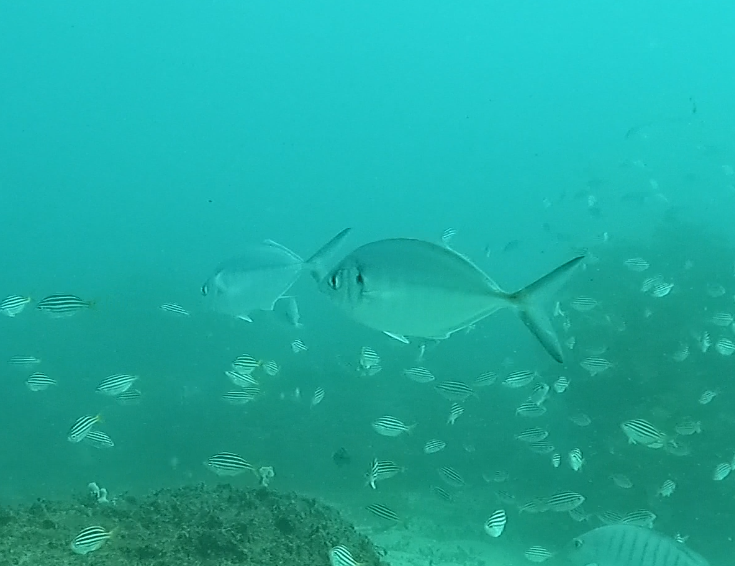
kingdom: Animalia
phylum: Chordata
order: Perciformes
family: Carangidae
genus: Pseudocaranx
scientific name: Pseudocaranx dentex
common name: White trevally
